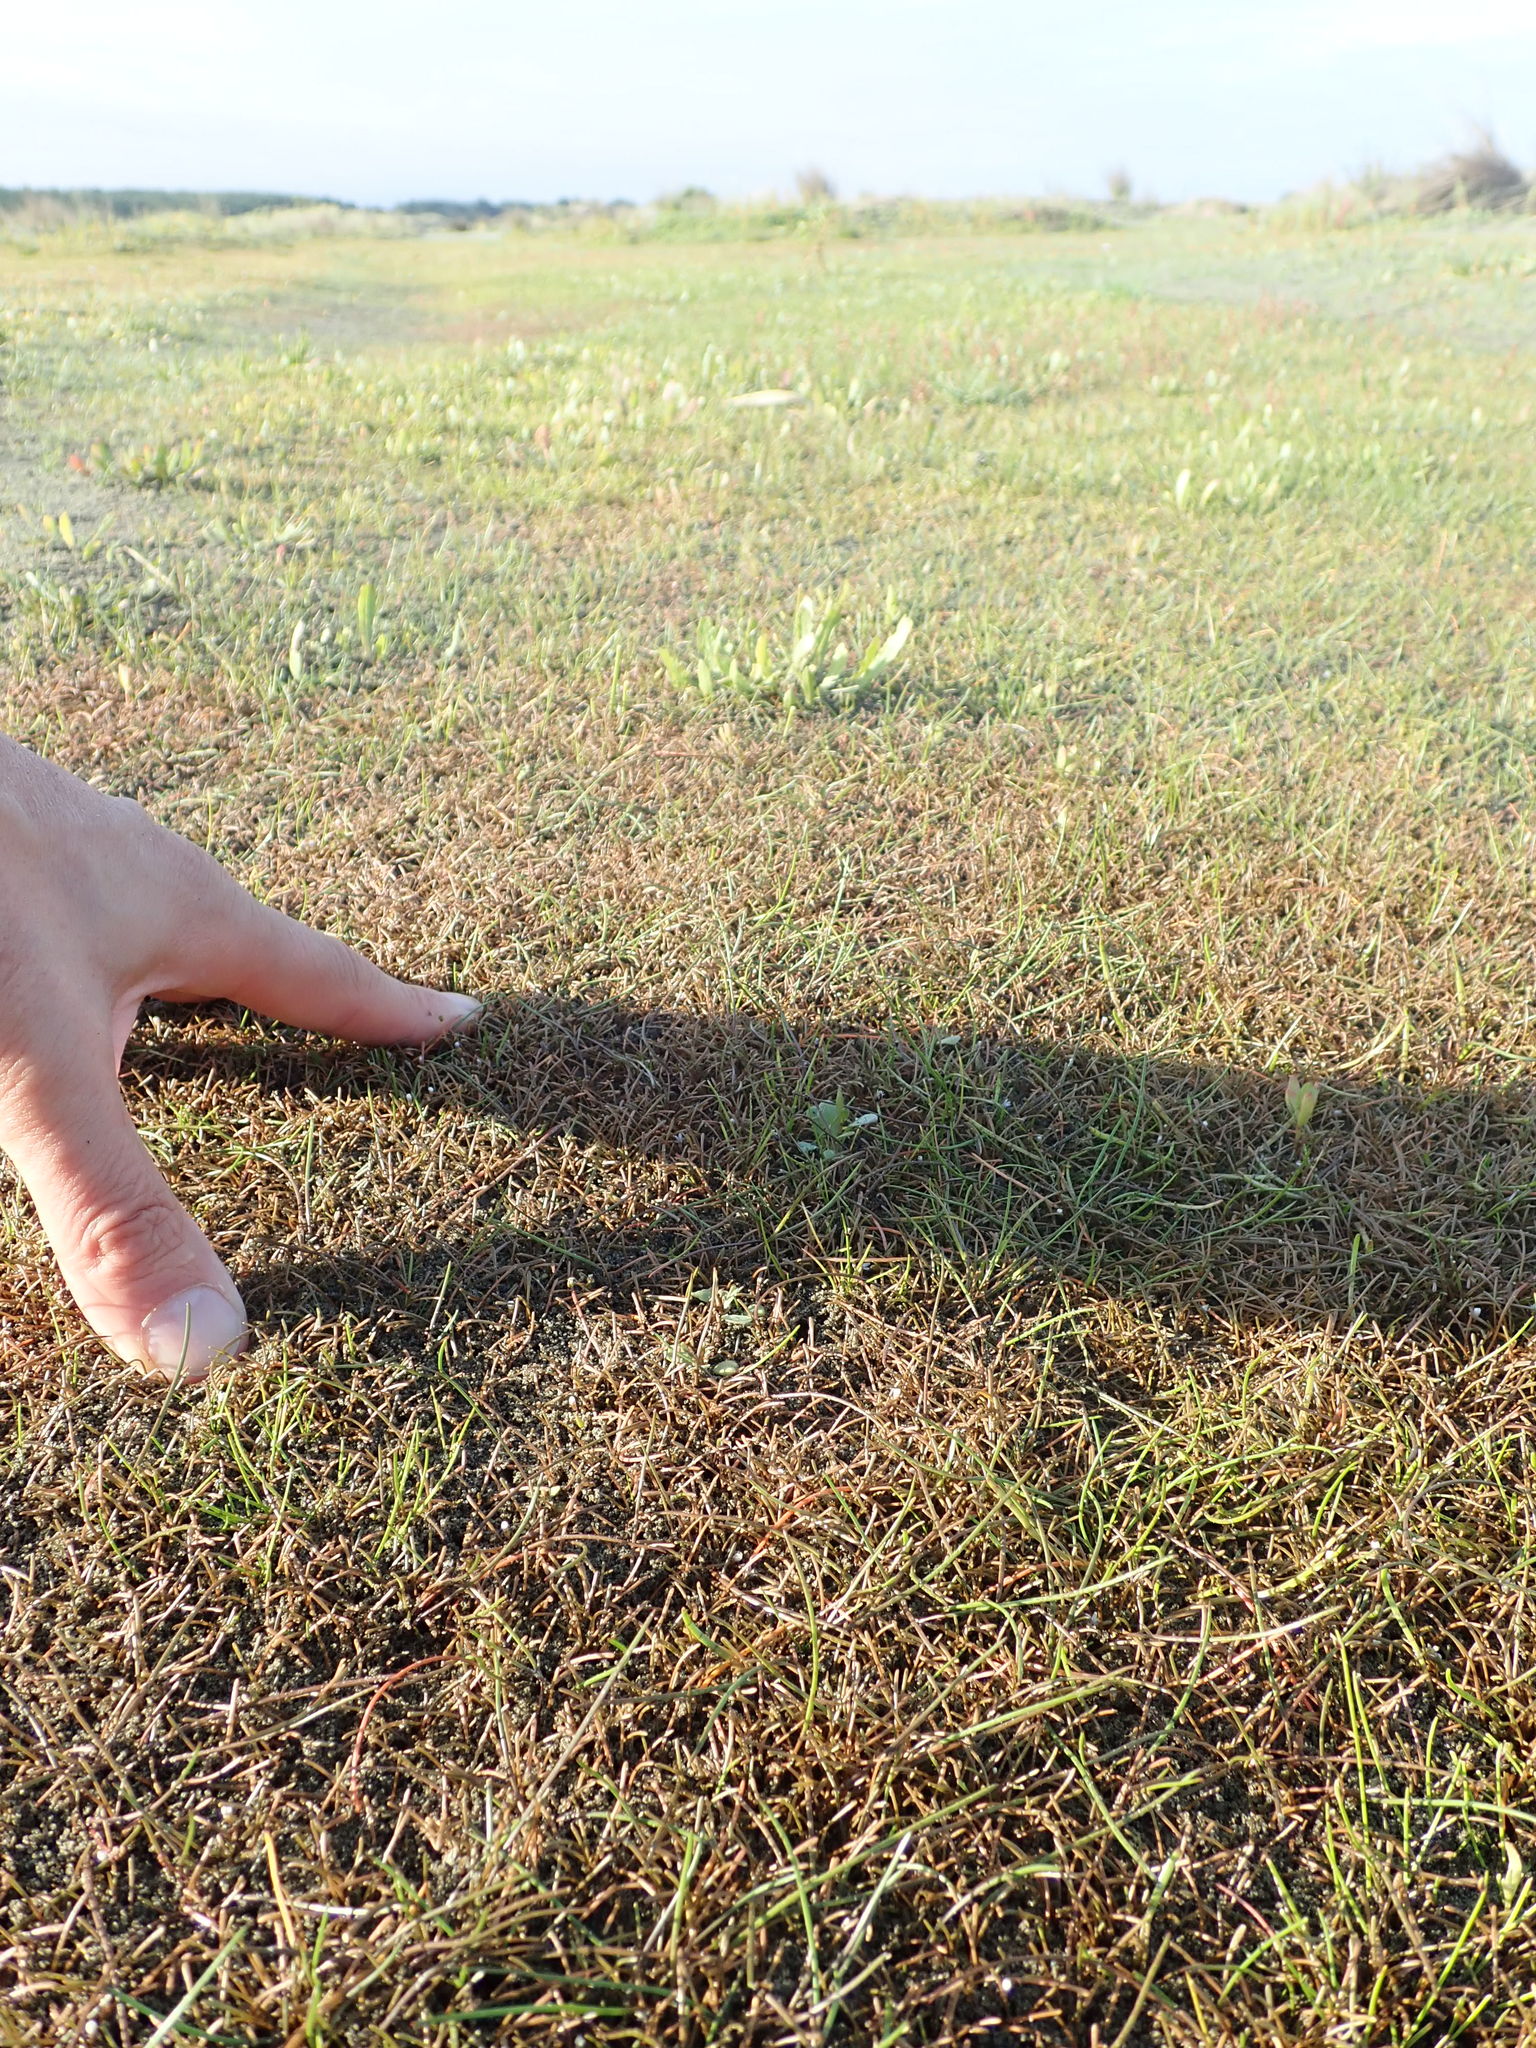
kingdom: Plantae
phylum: Tracheophyta
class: Magnoliopsida
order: Lamiales
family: Scrophulariaceae
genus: Limosella
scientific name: Limosella australis
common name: Welsh mudwort
